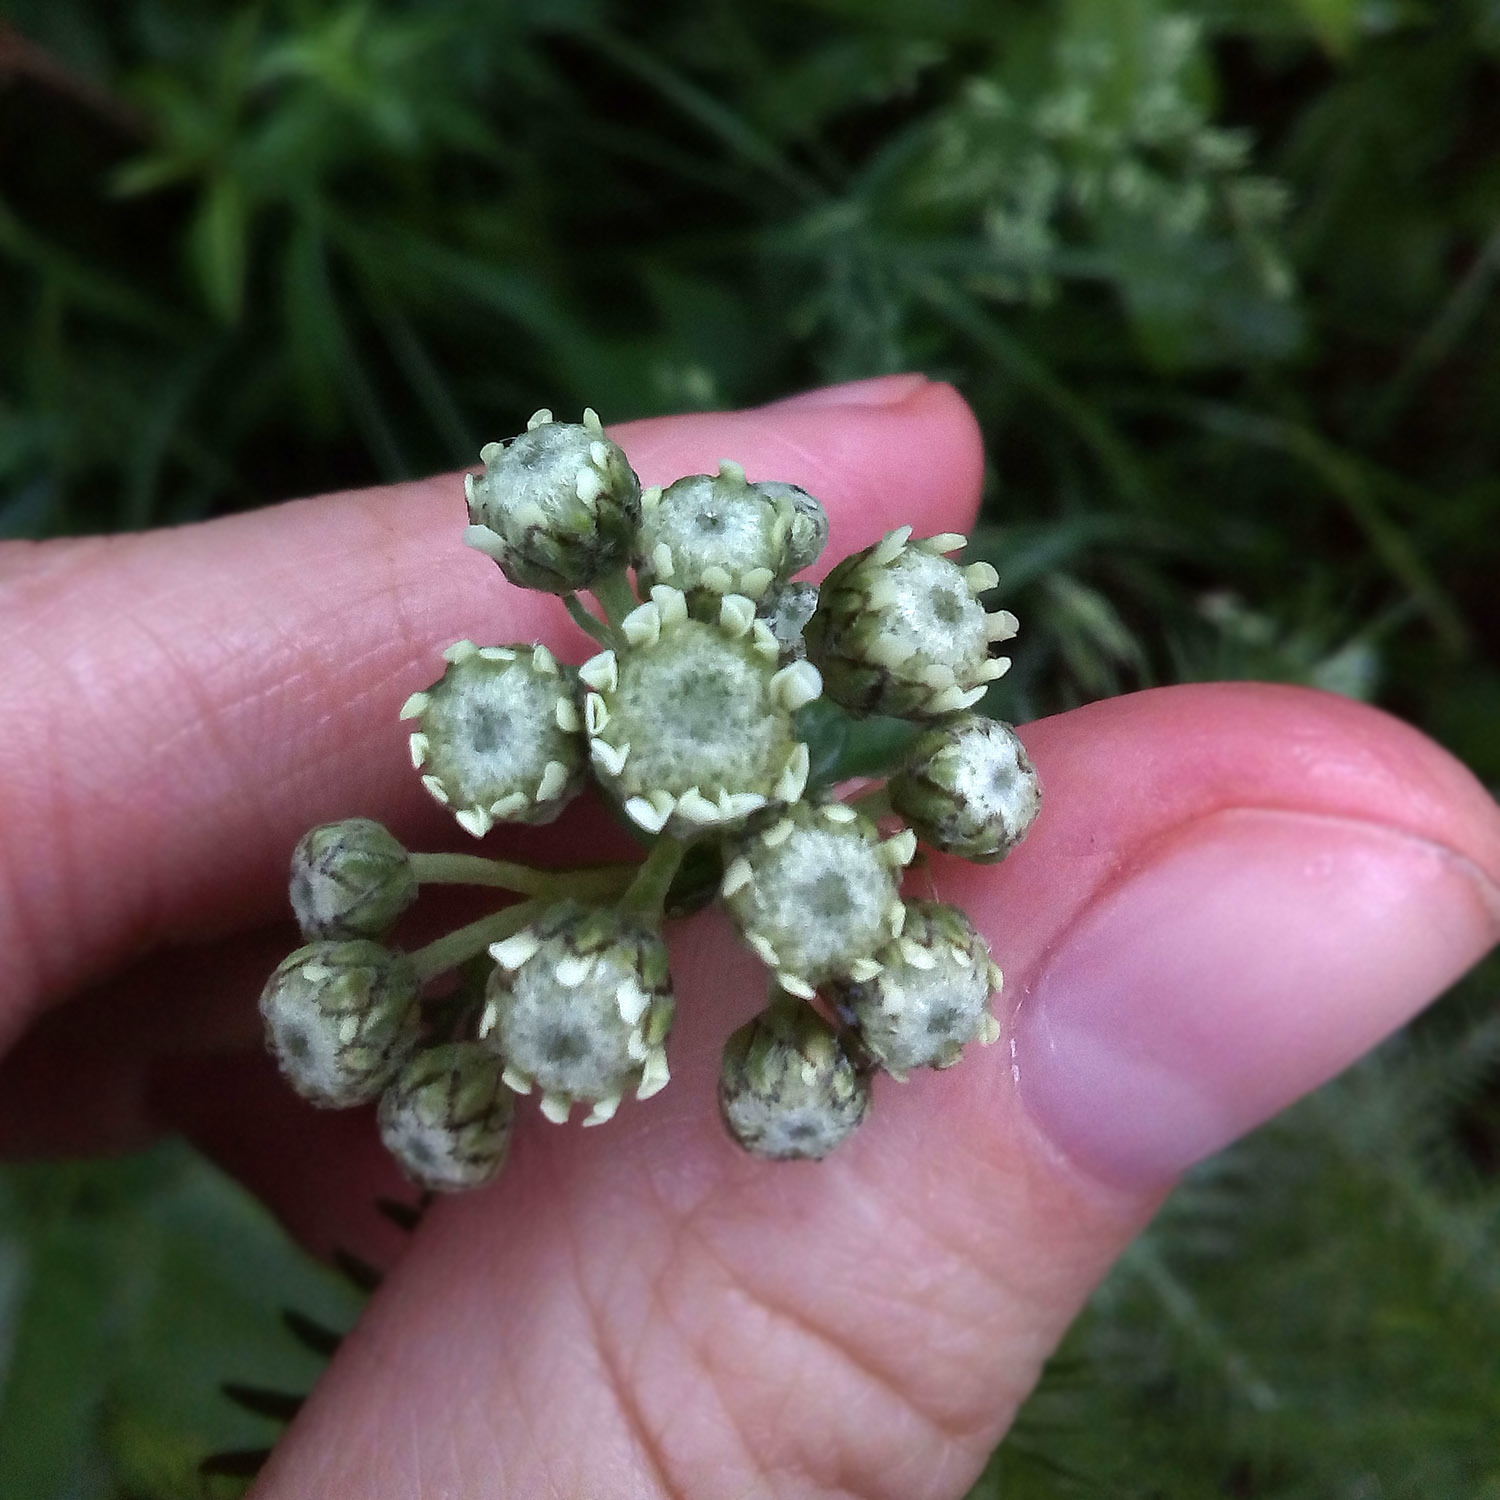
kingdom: Plantae
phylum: Tracheophyta
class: Magnoliopsida
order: Asterales
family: Asteraceae
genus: Achillea
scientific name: Achillea impatiens
